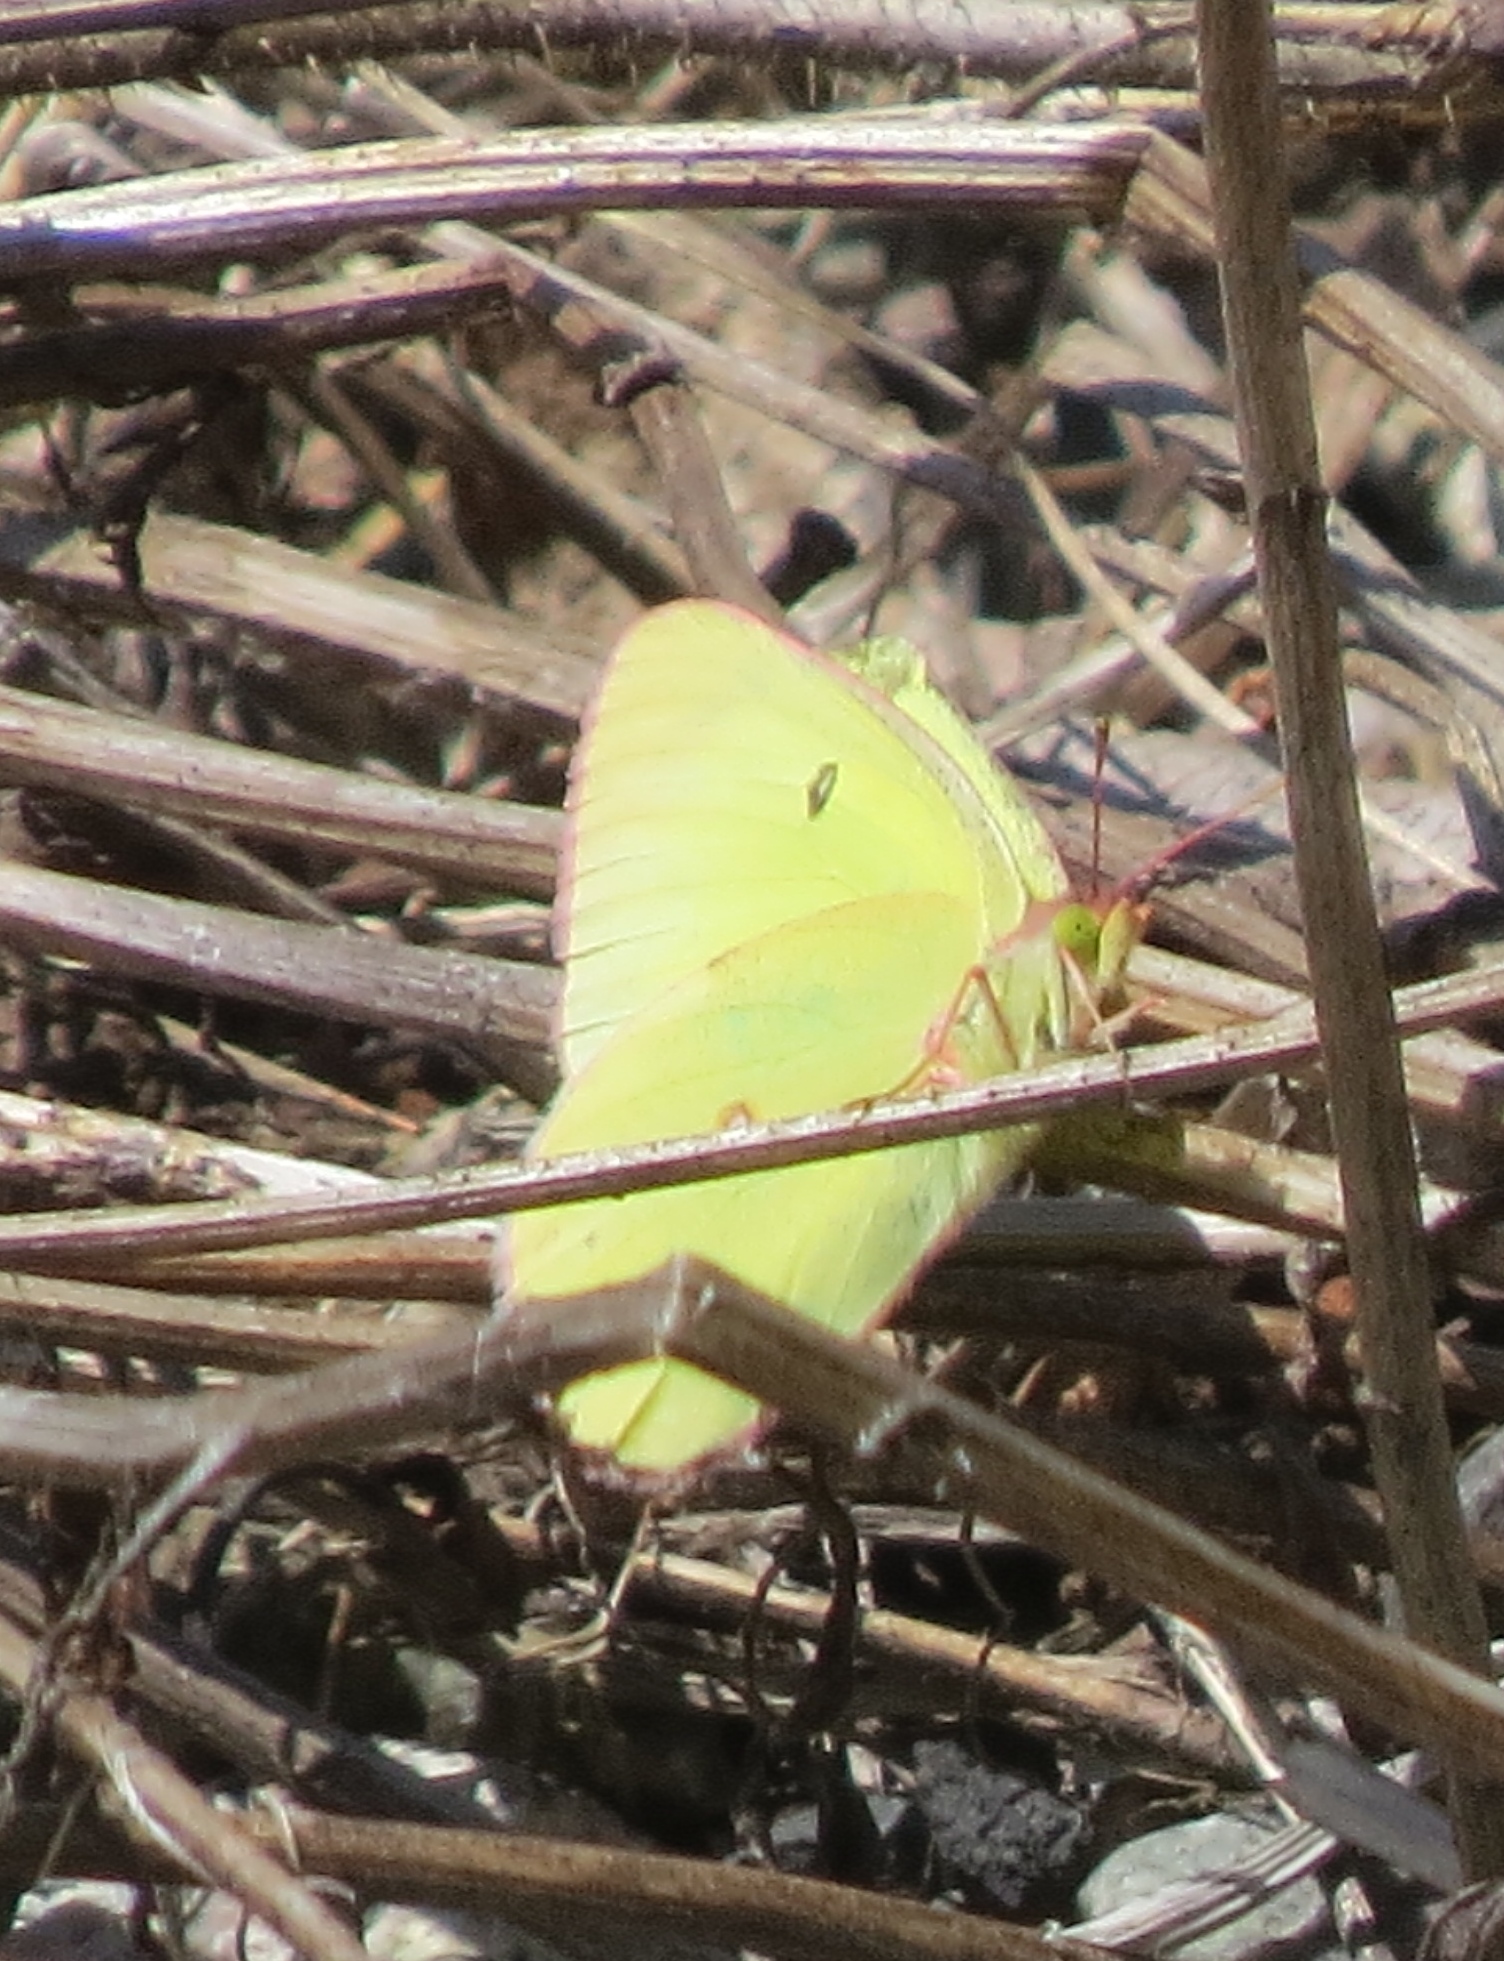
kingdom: Animalia
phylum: Arthropoda
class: Insecta
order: Lepidoptera
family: Pieridae
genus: Colias
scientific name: Colias interior
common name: Pink-edged sulphur
